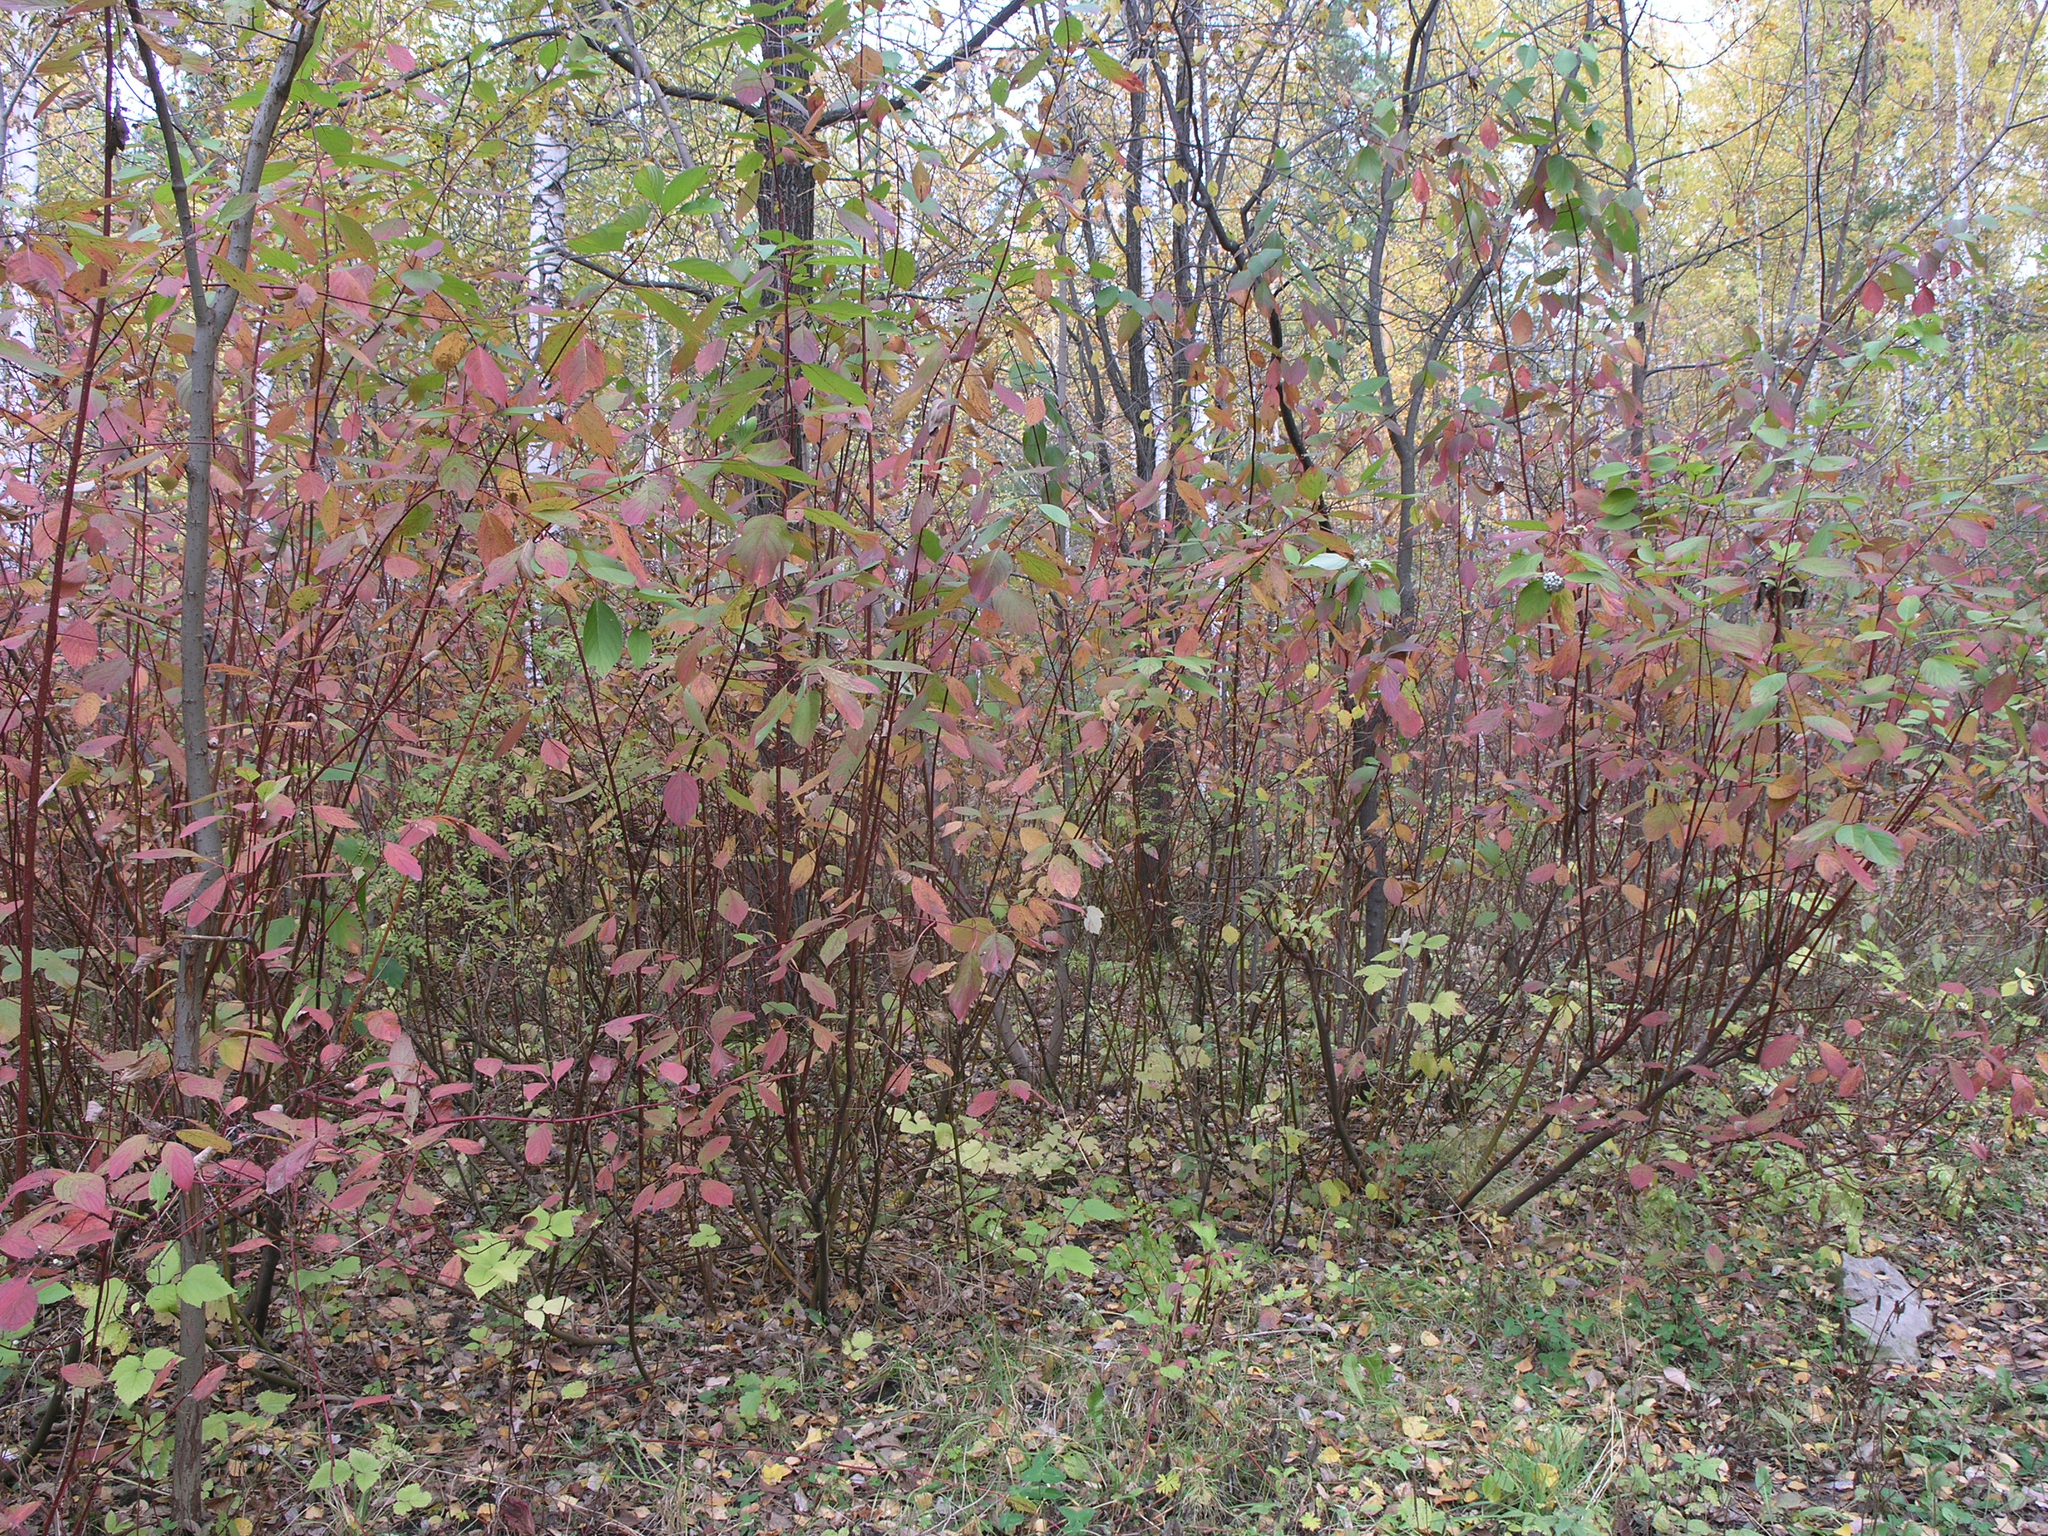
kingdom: Plantae
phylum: Tracheophyta
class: Magnoliopsida
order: Cornales
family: Cornaceae
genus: Cornus
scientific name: Cornus alba
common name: White dogwood
